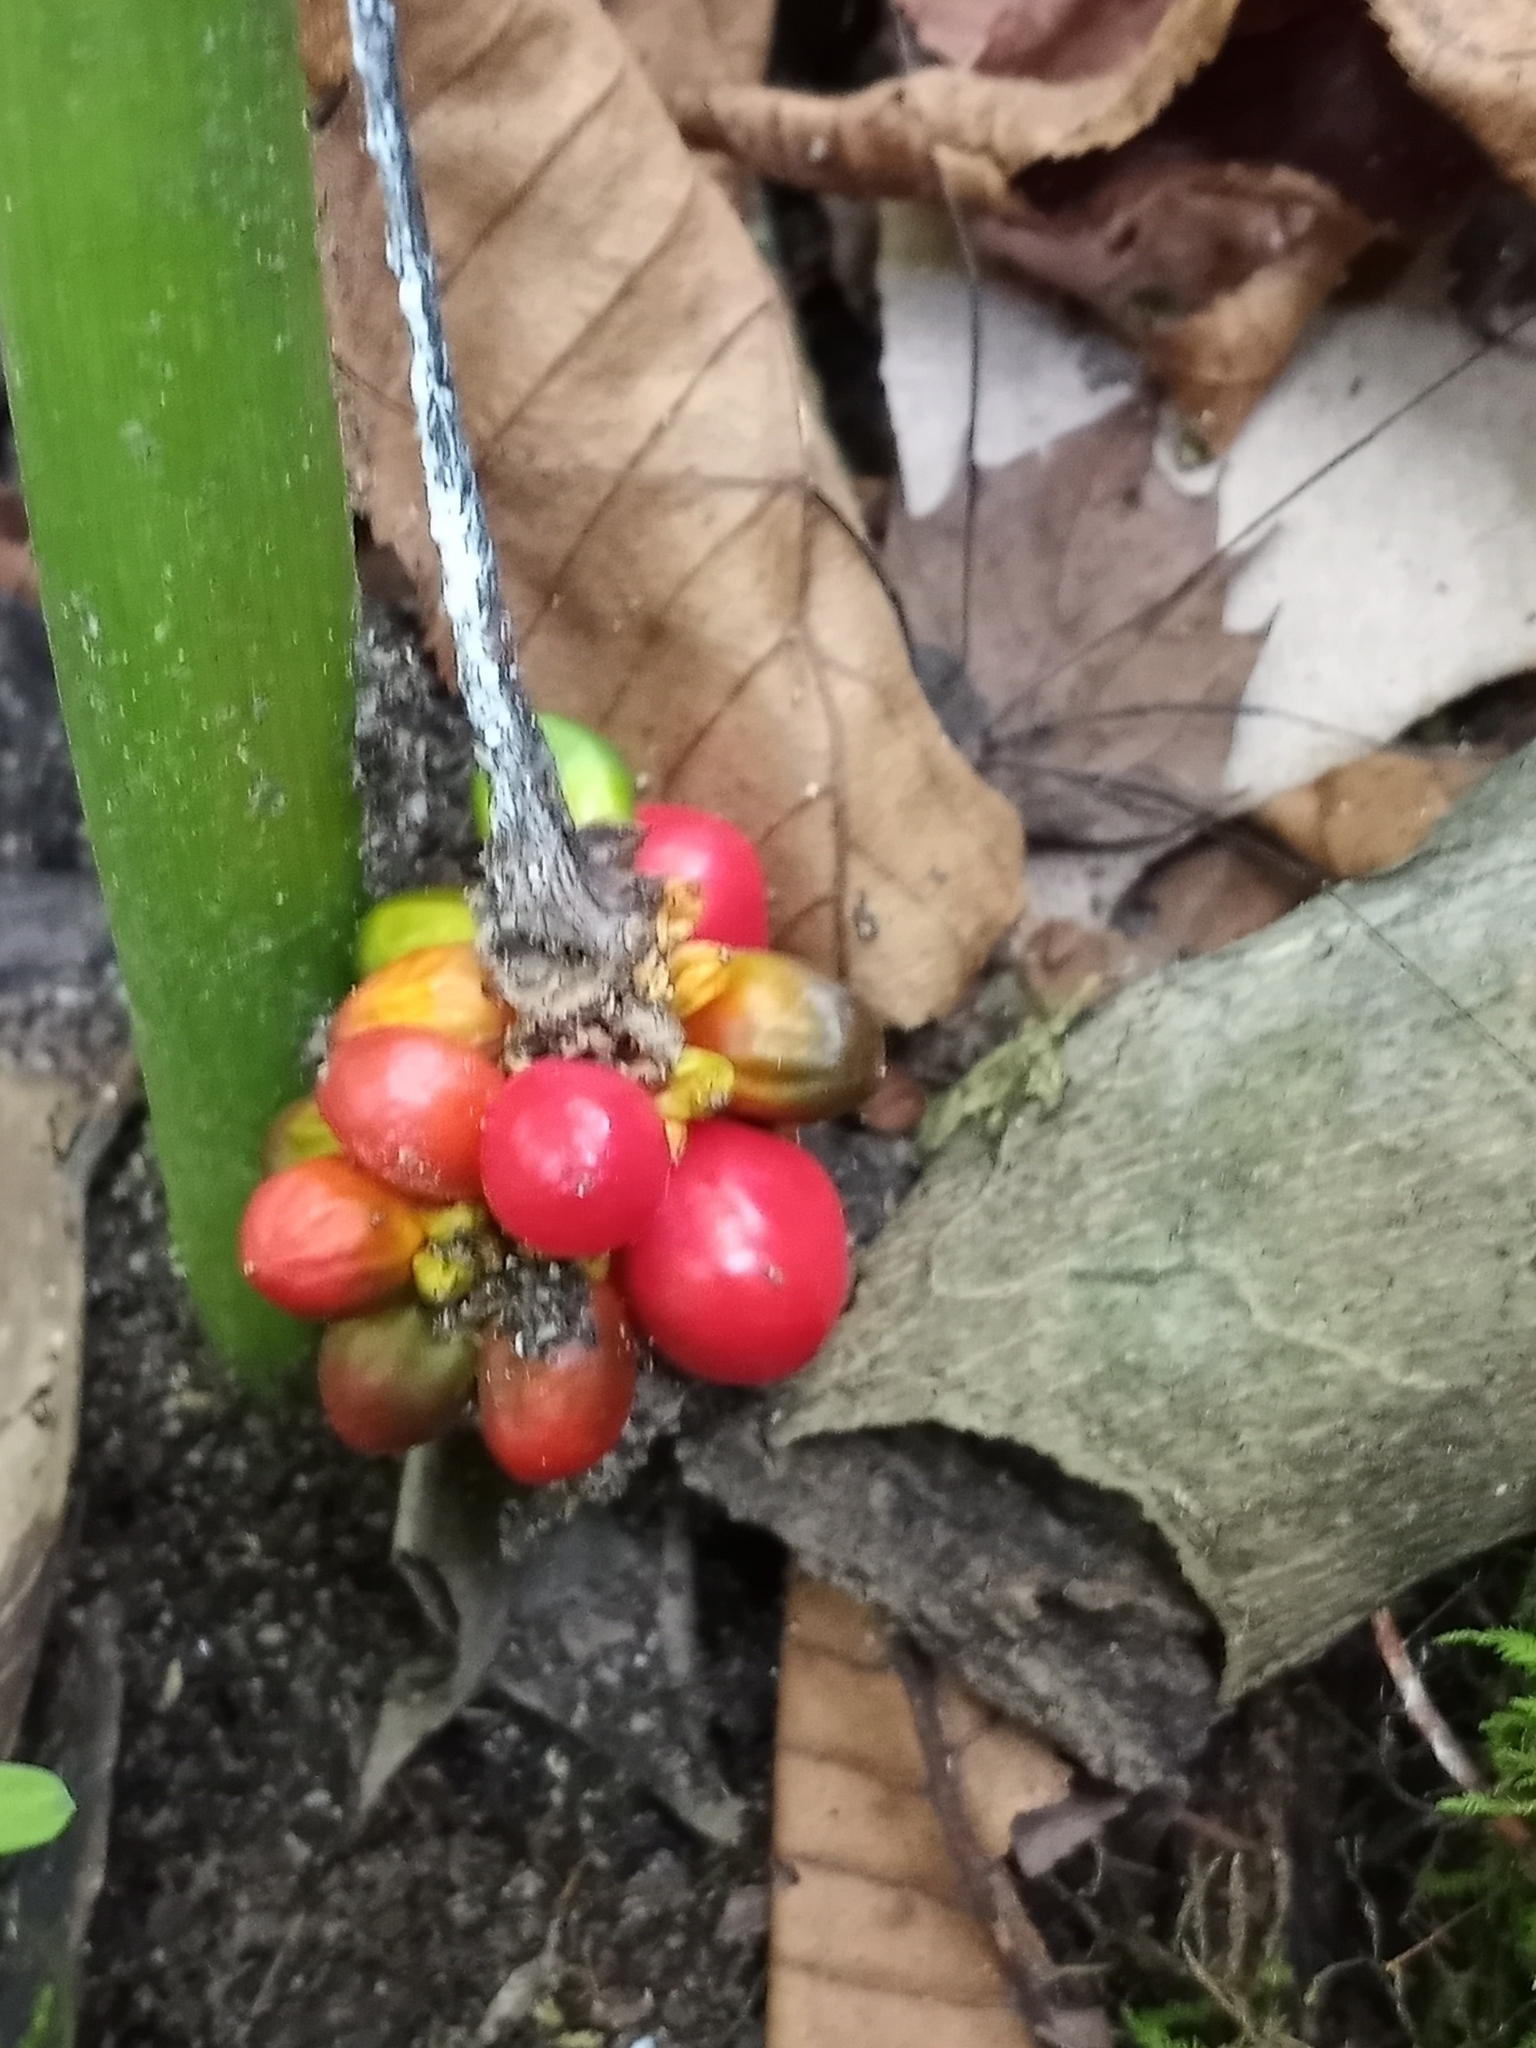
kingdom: Plantae
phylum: Tracheophyta
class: Liliopsida
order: Alismatales
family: Araceae
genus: Arisaema
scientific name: Arisaema triphyllum
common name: Jack-in-the-pulpit
